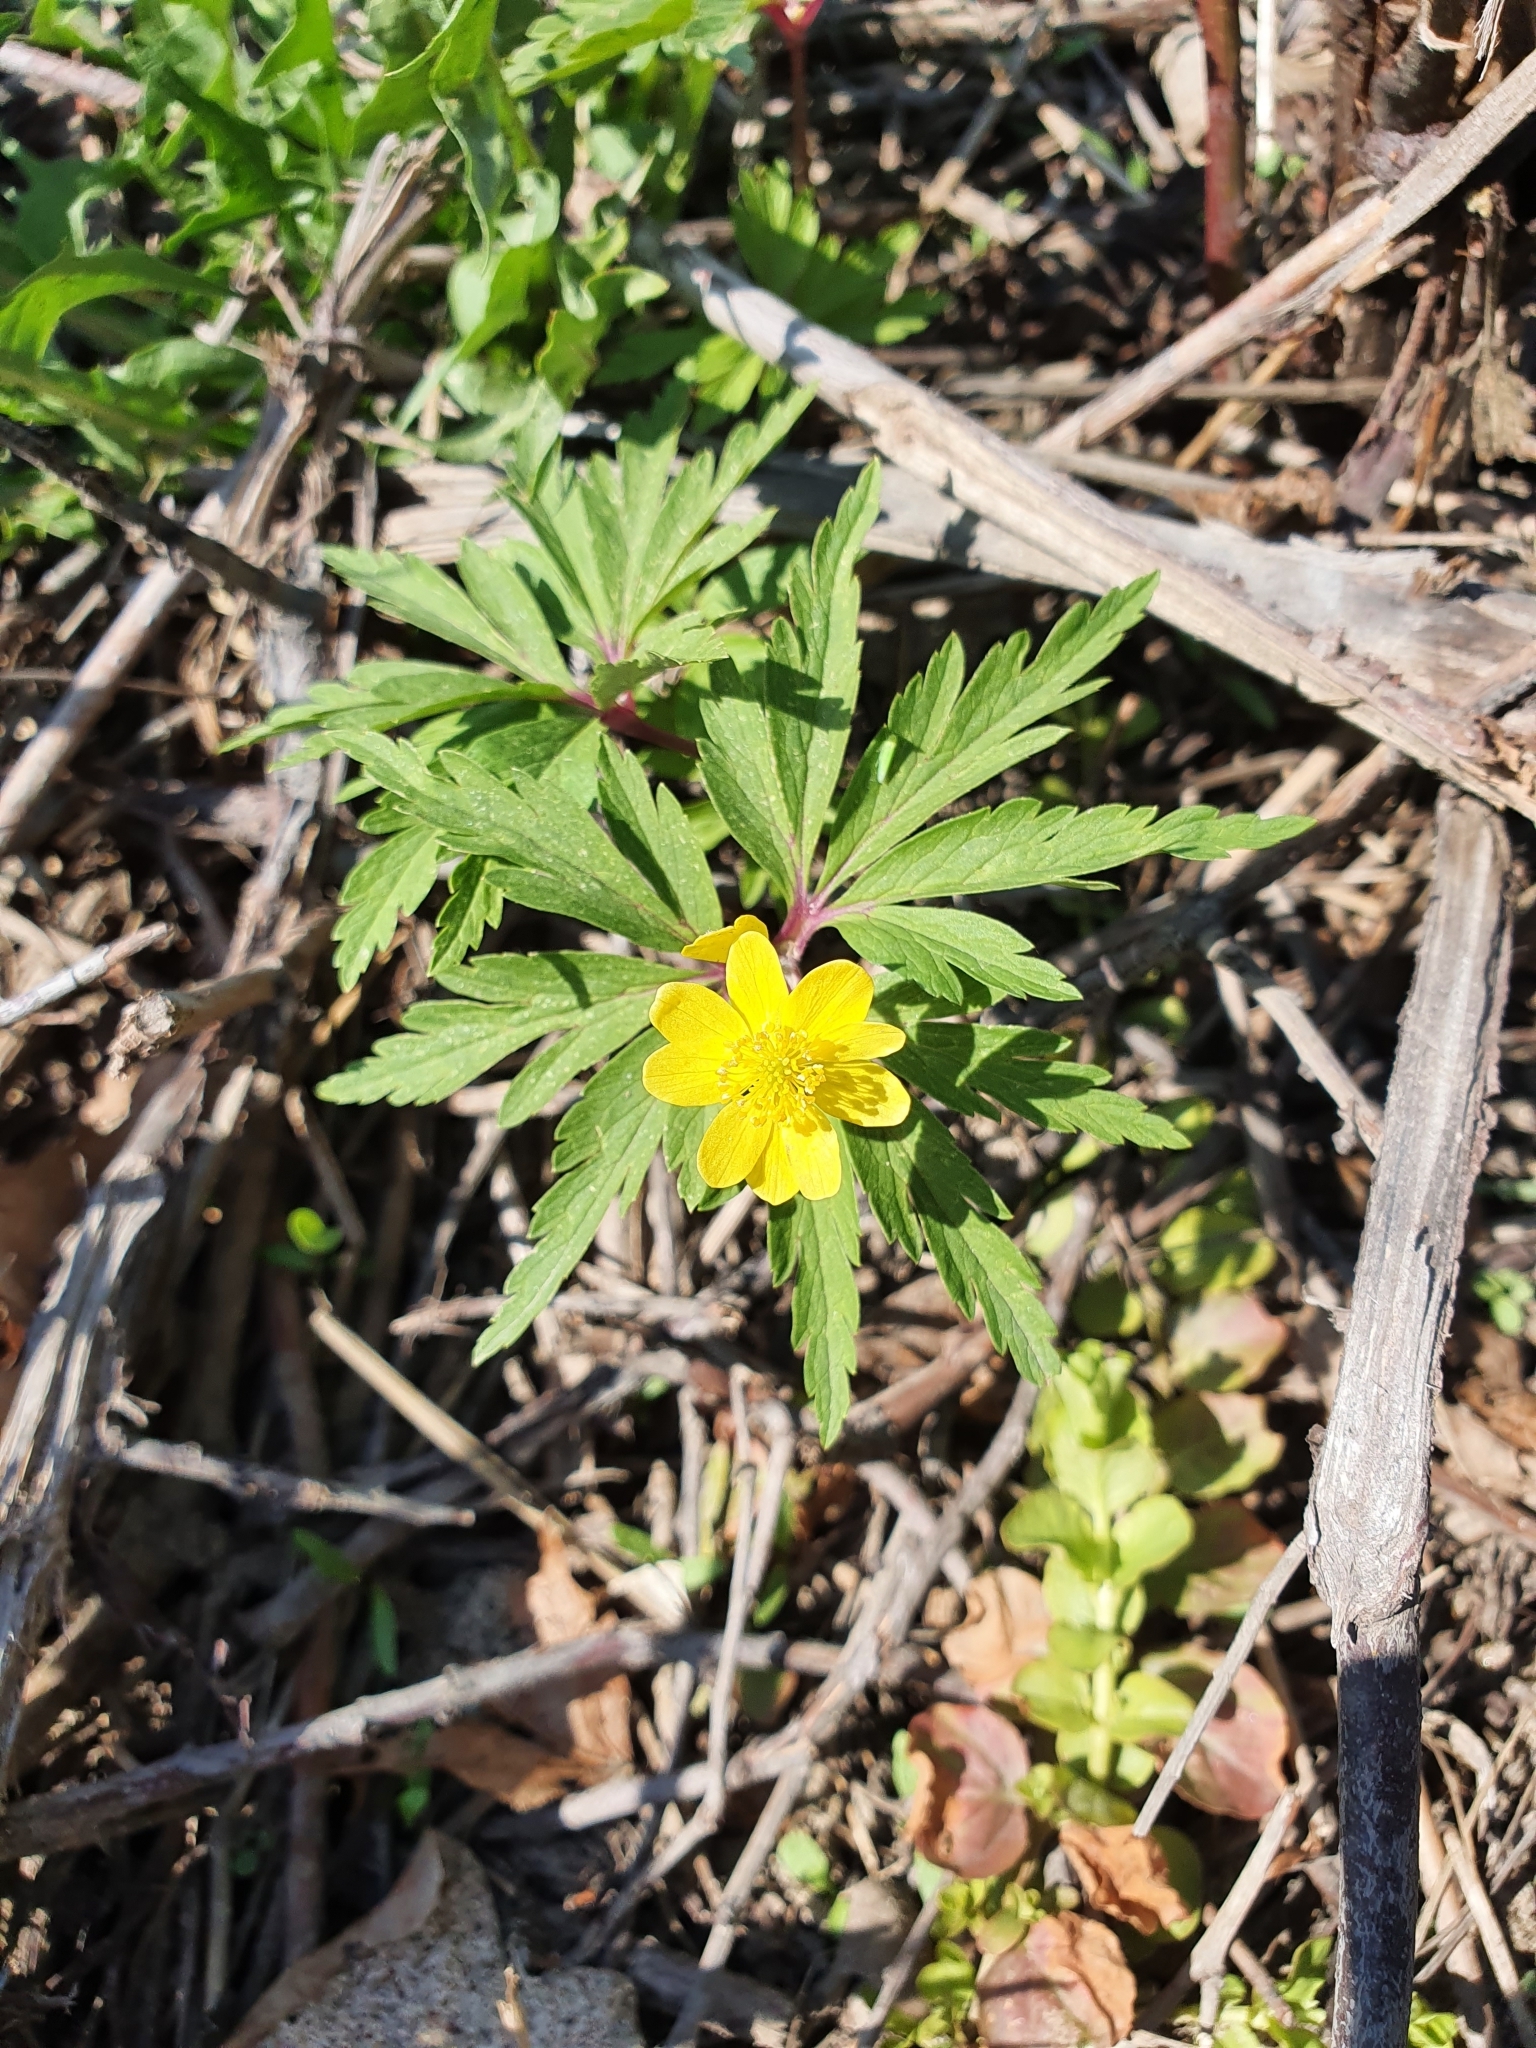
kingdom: Plantae
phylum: Tracheophyta
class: Magnoliopsida
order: Ranunculales
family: Ranunculaceae
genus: Anemone
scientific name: Anemone ranunculoides
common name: Yellow anemone
